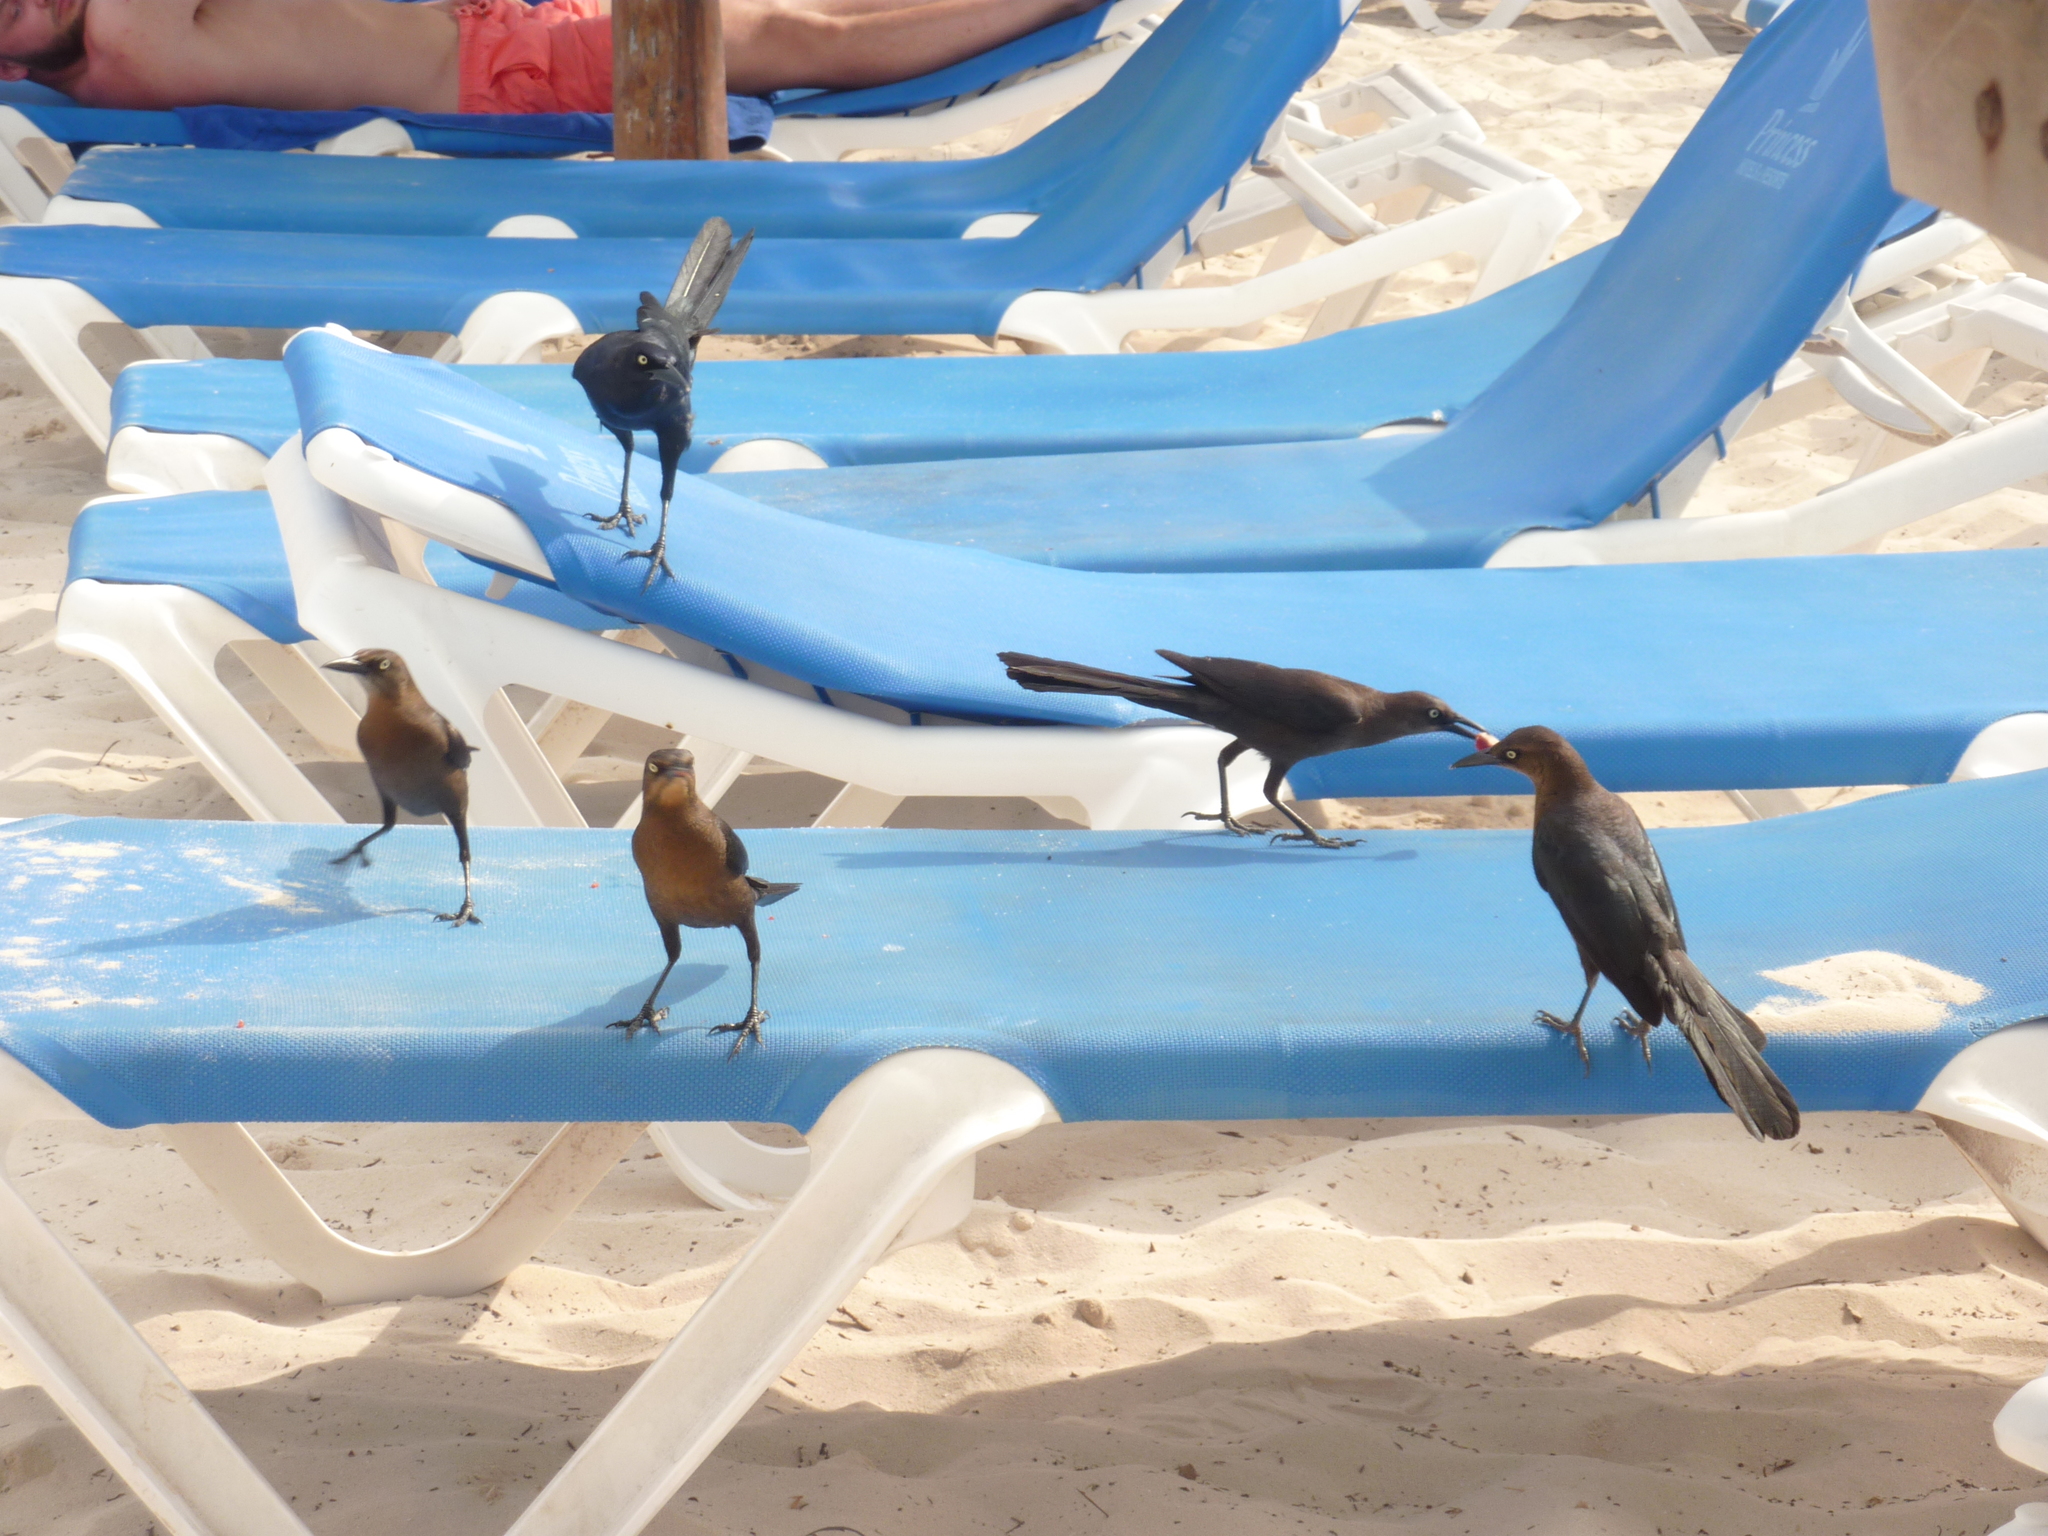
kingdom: Animalia
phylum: Chordata
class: Aves
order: Passeriformes
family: Icteridae
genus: Quiscalus
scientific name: Quiscalus mexicanus
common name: Great-tailed grackle
